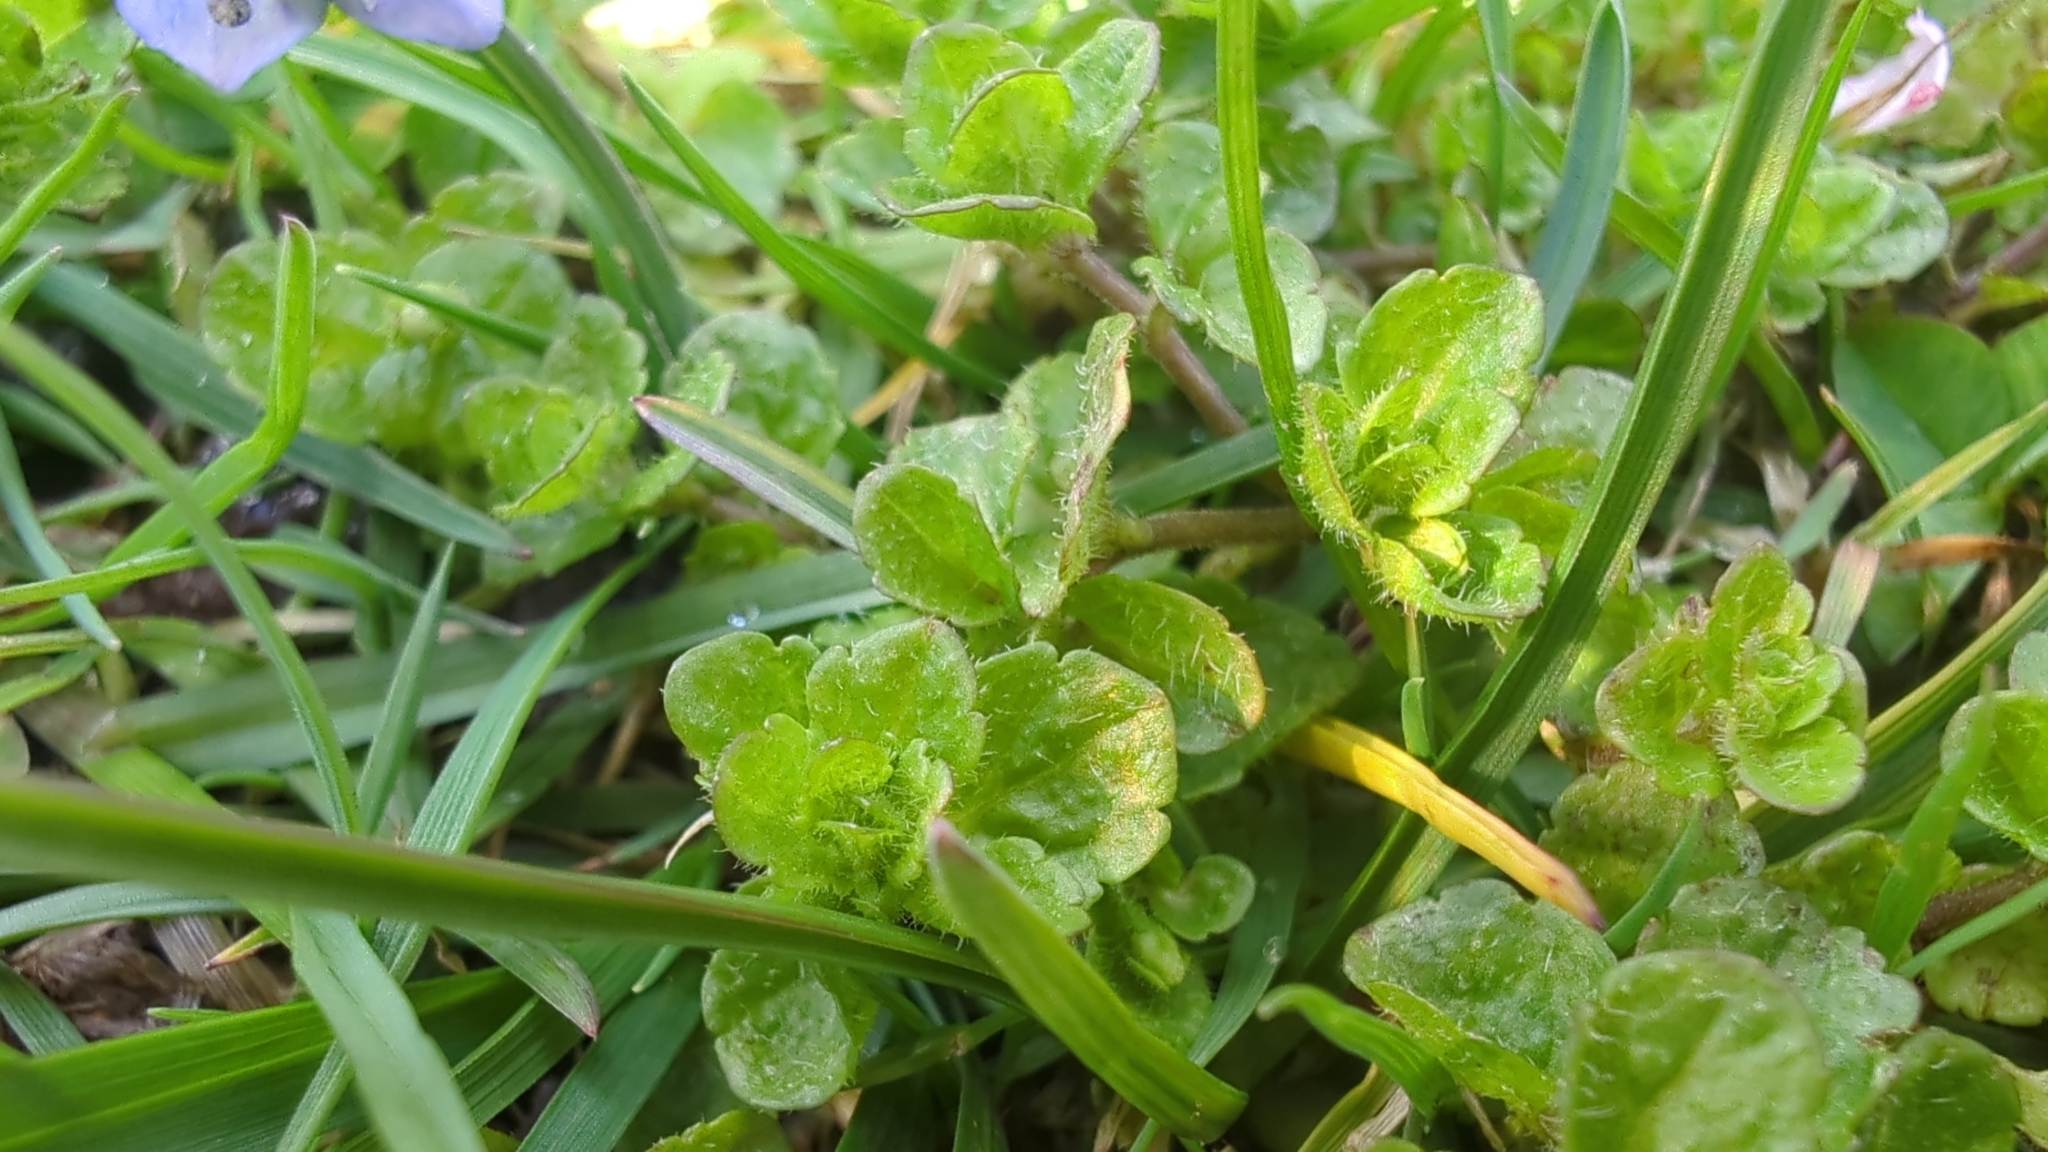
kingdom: Plantae
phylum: Tracheophyta
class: Magnoliopsida
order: Lamiales
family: Plantaginaceae
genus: Veronica
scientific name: Veronica filiformis
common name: Slender speedwell
